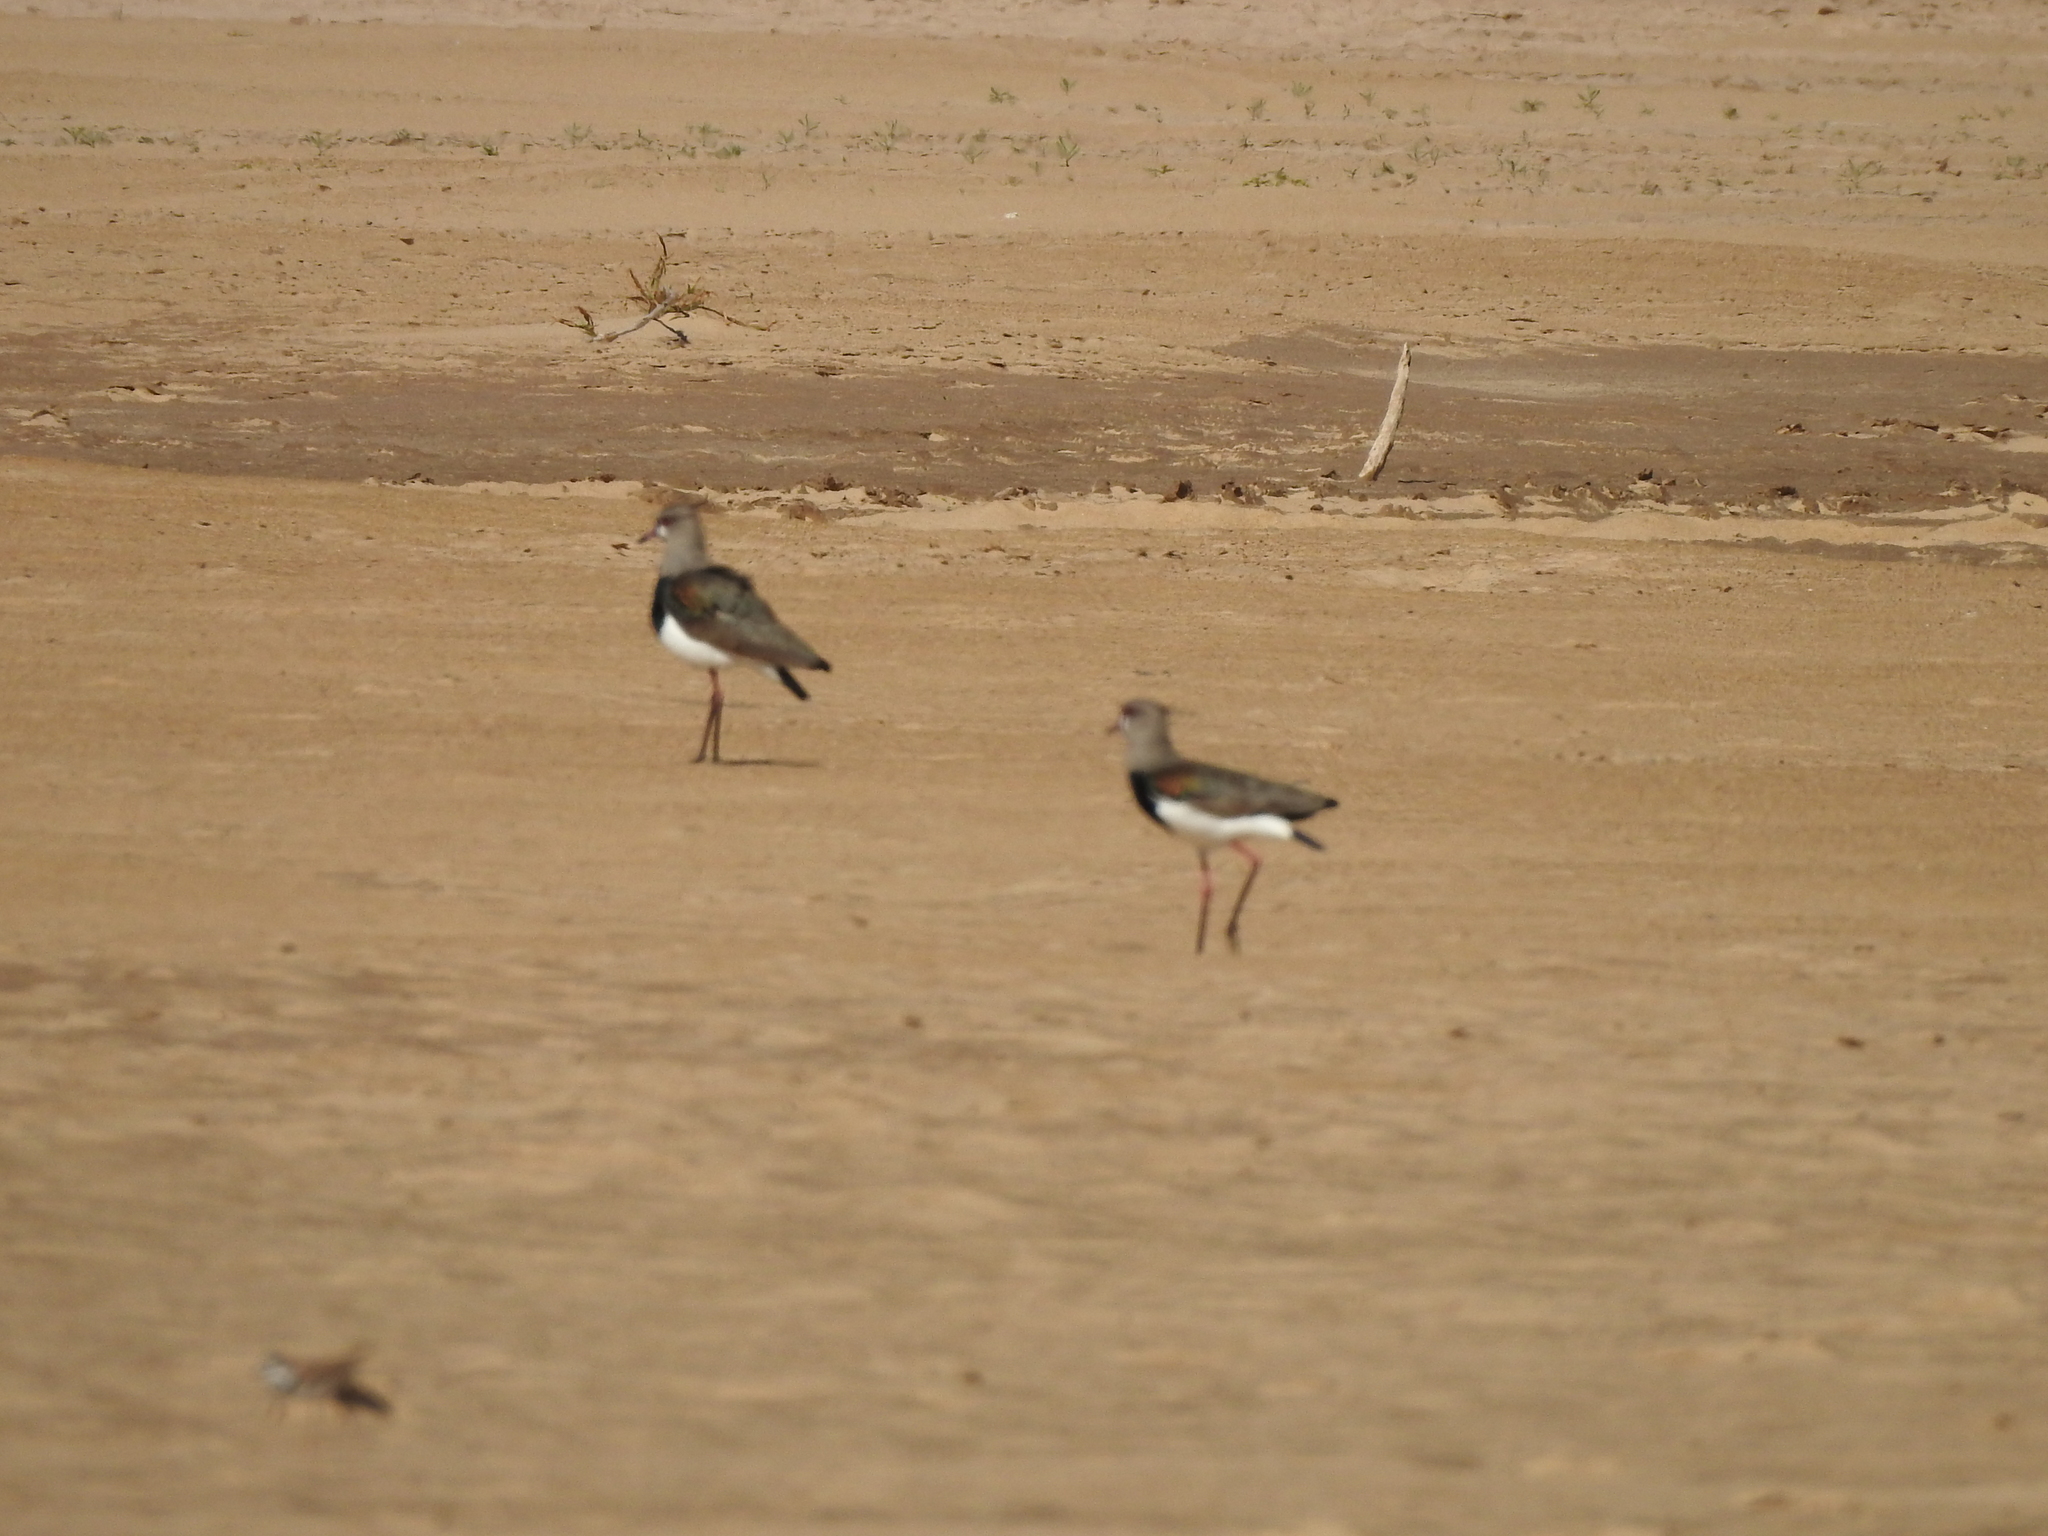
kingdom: Animalia
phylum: Chordata
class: Aves
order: Charadriiformes
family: Charadriidae
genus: Vanellus
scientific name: Vanellus chilensis
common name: Southern lapwing
